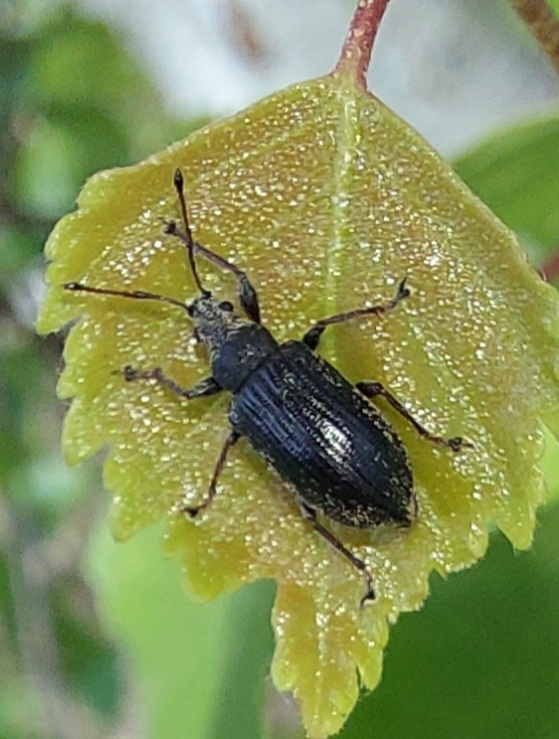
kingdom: Animalia
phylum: Arthropoda
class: Insecta
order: Coleoptera
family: Curculionidae
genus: Phyllobius
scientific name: Phyllobius pyri
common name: Common leaf weevil
